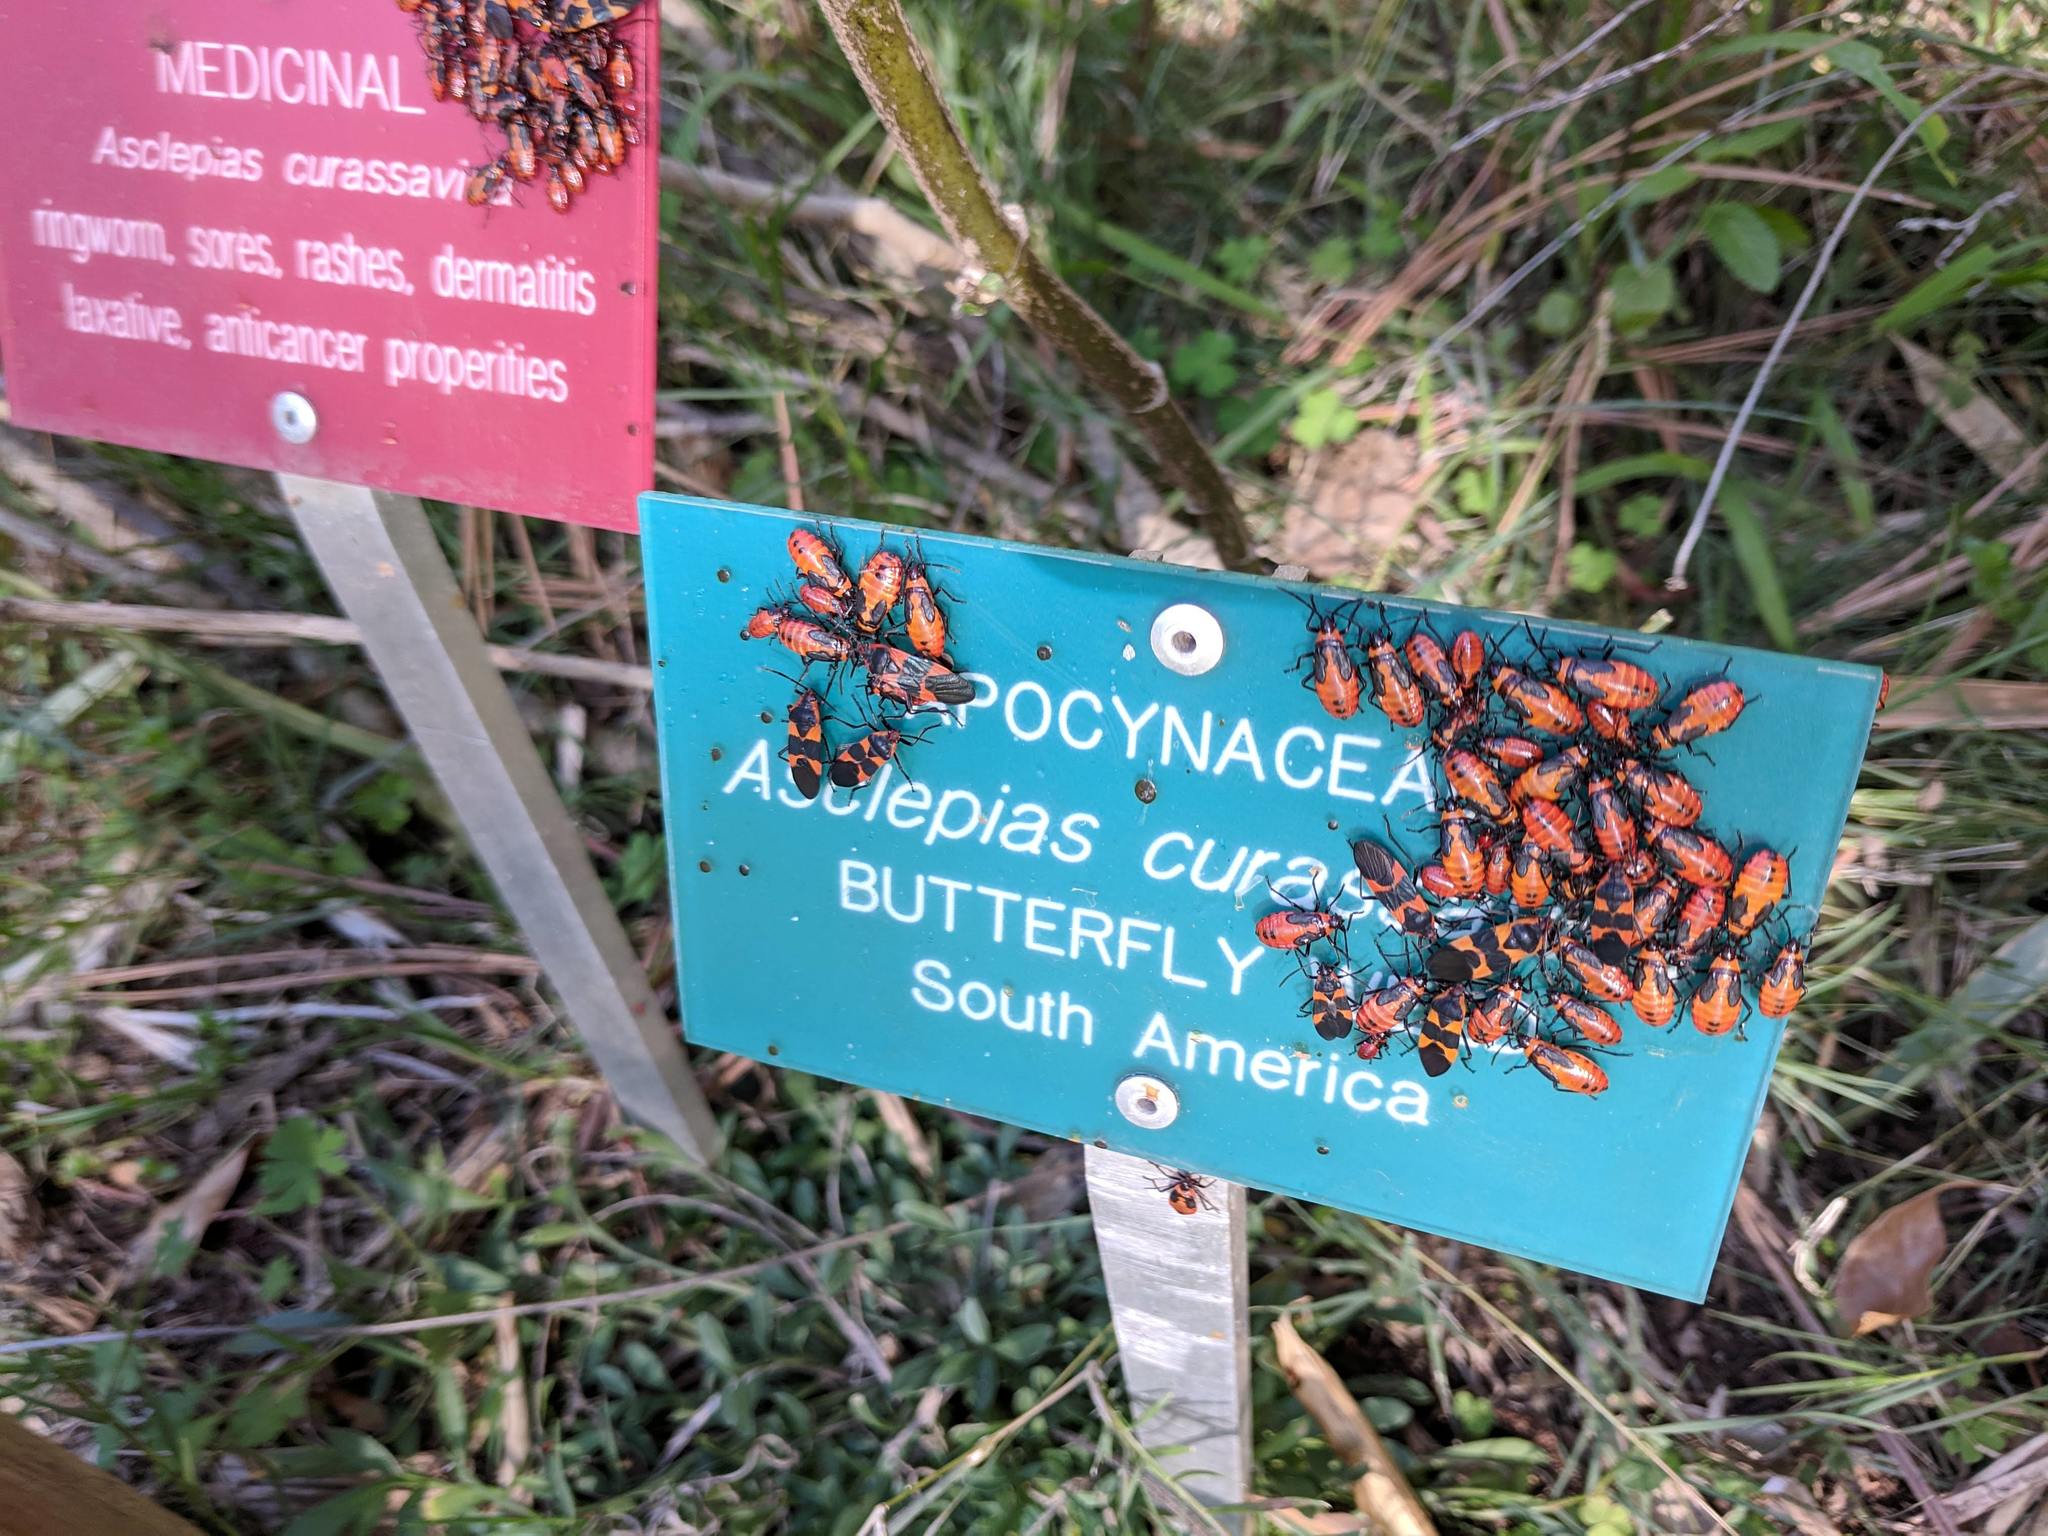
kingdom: Animalia
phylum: Arthropoda
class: Insecta
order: Hemiptera
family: Lygaeidae
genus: Oncopeltus
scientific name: Oncopeltus fasciatus
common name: Large milkweed bug
